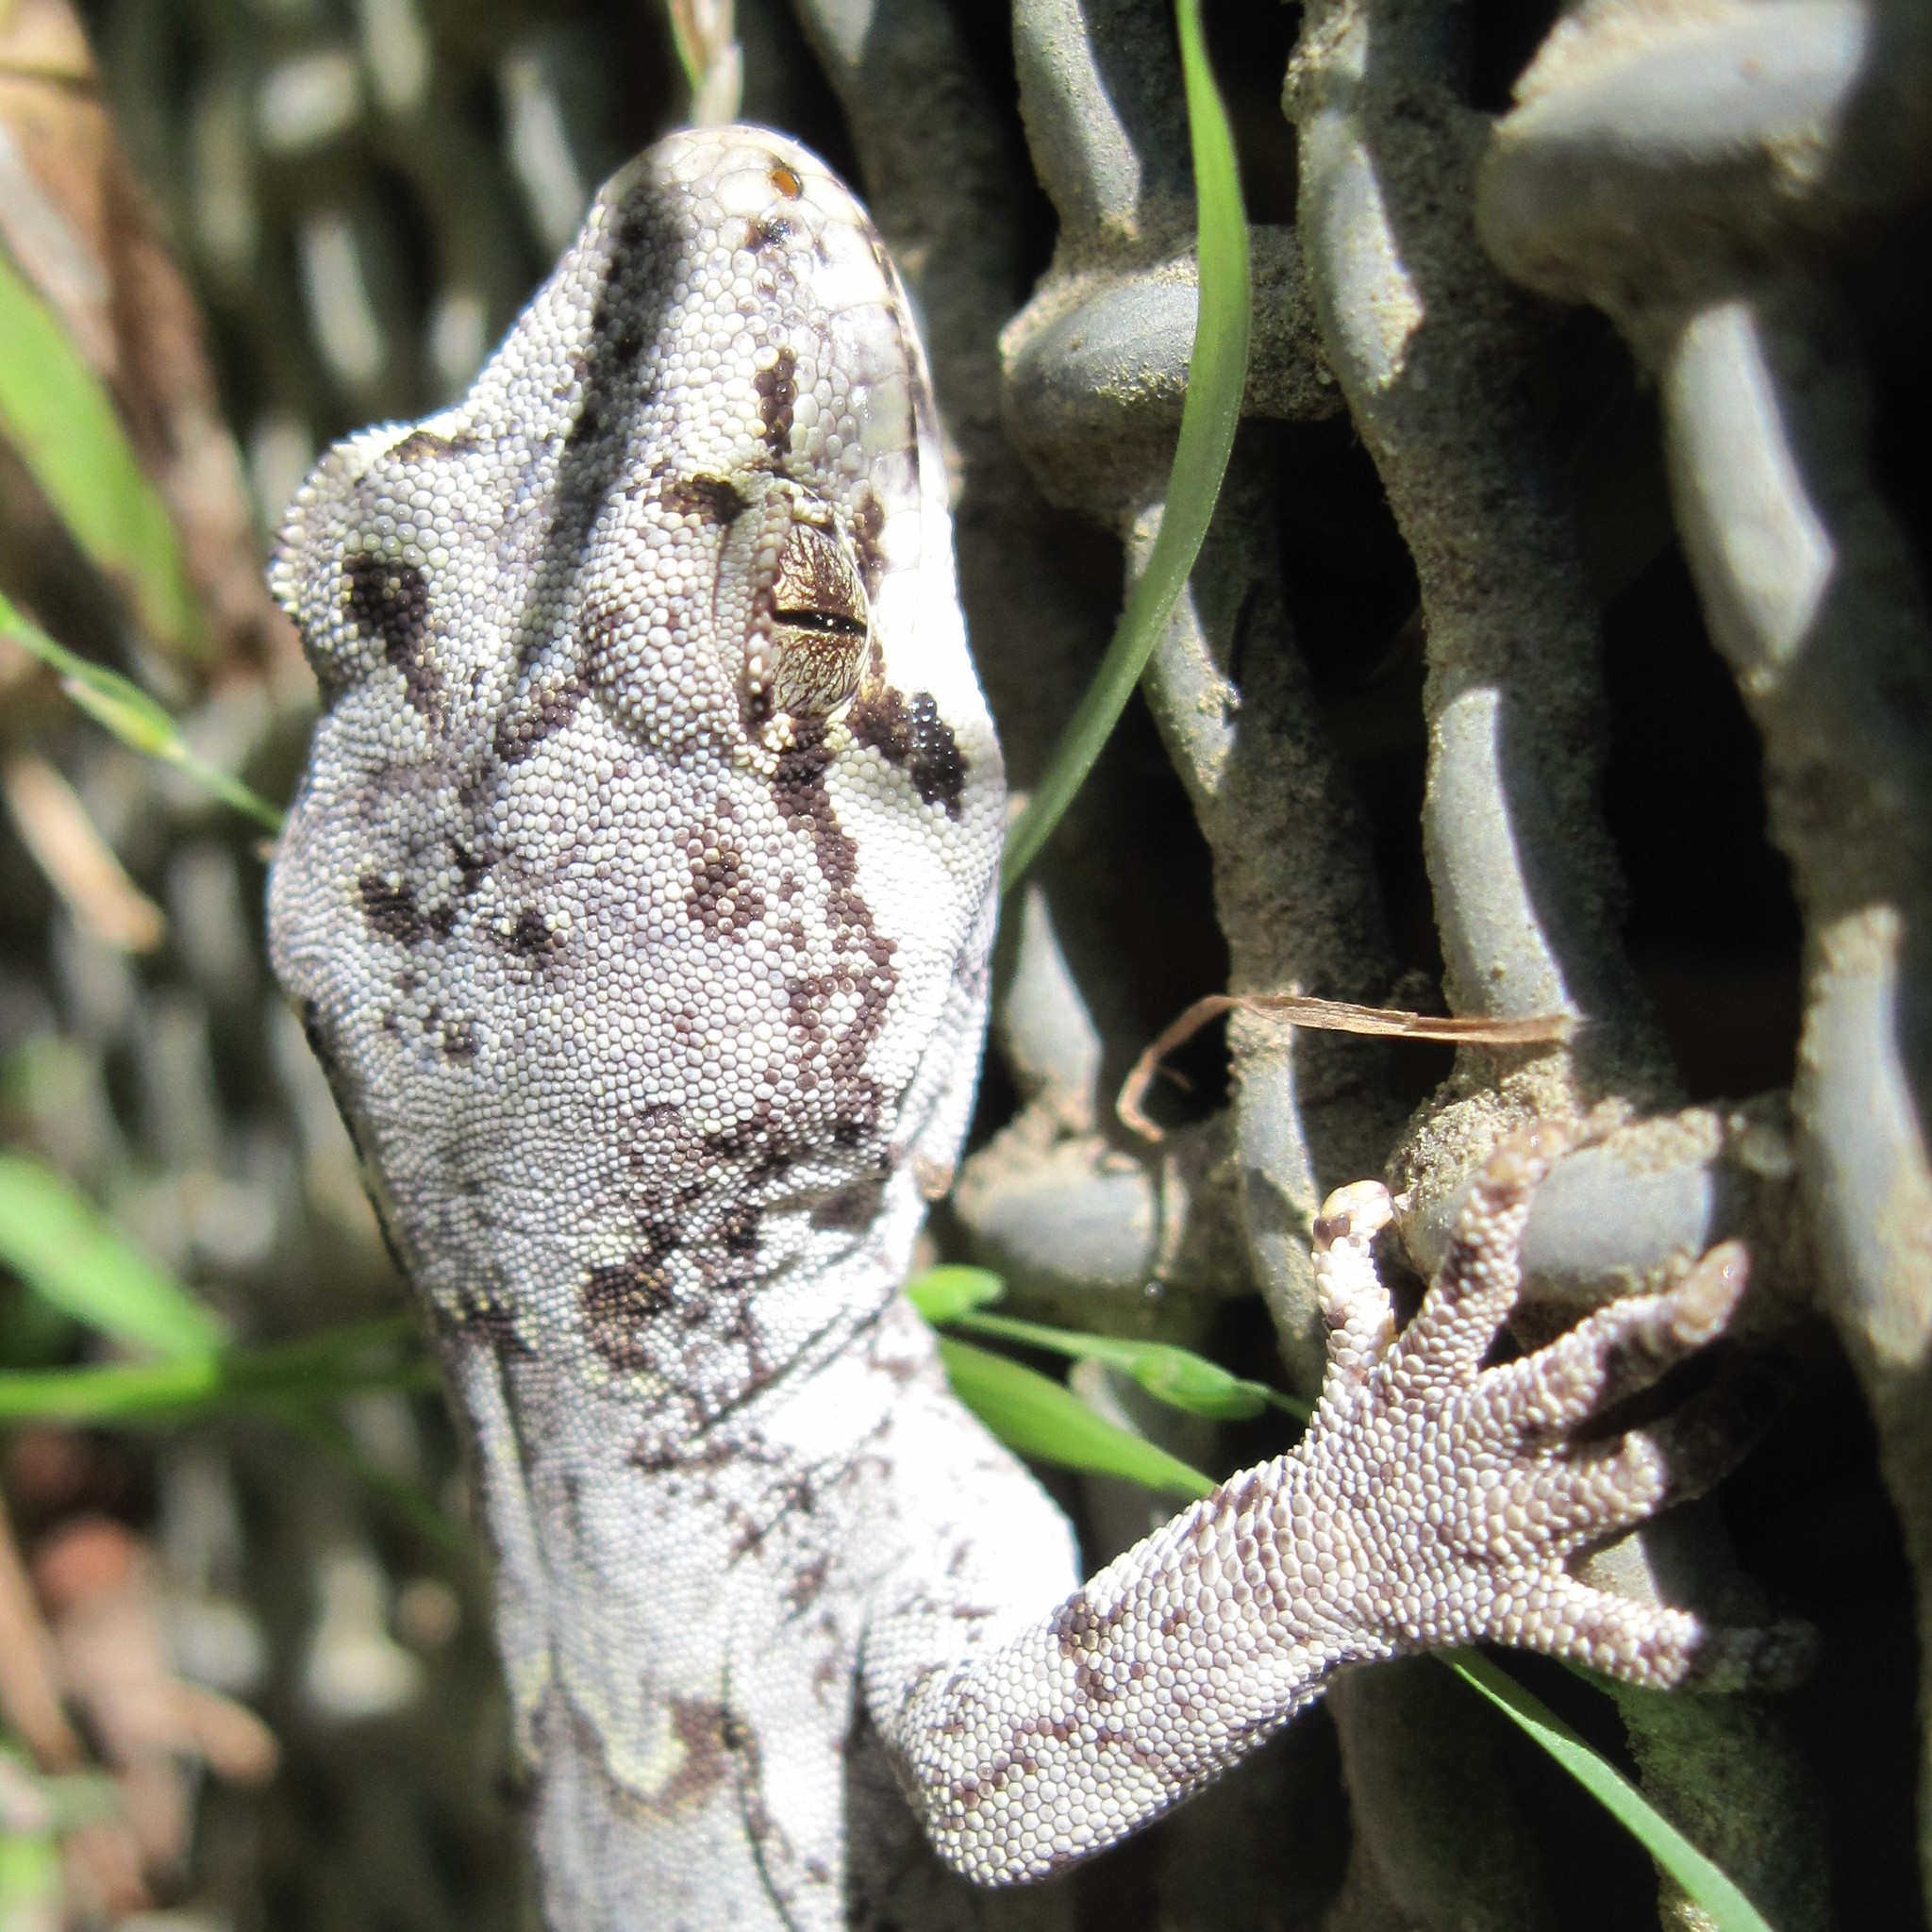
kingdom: Animalia
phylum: Chordata
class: Squamata
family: Diplodactylidae
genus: Mokopirirakau
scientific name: Mokopirirakau
